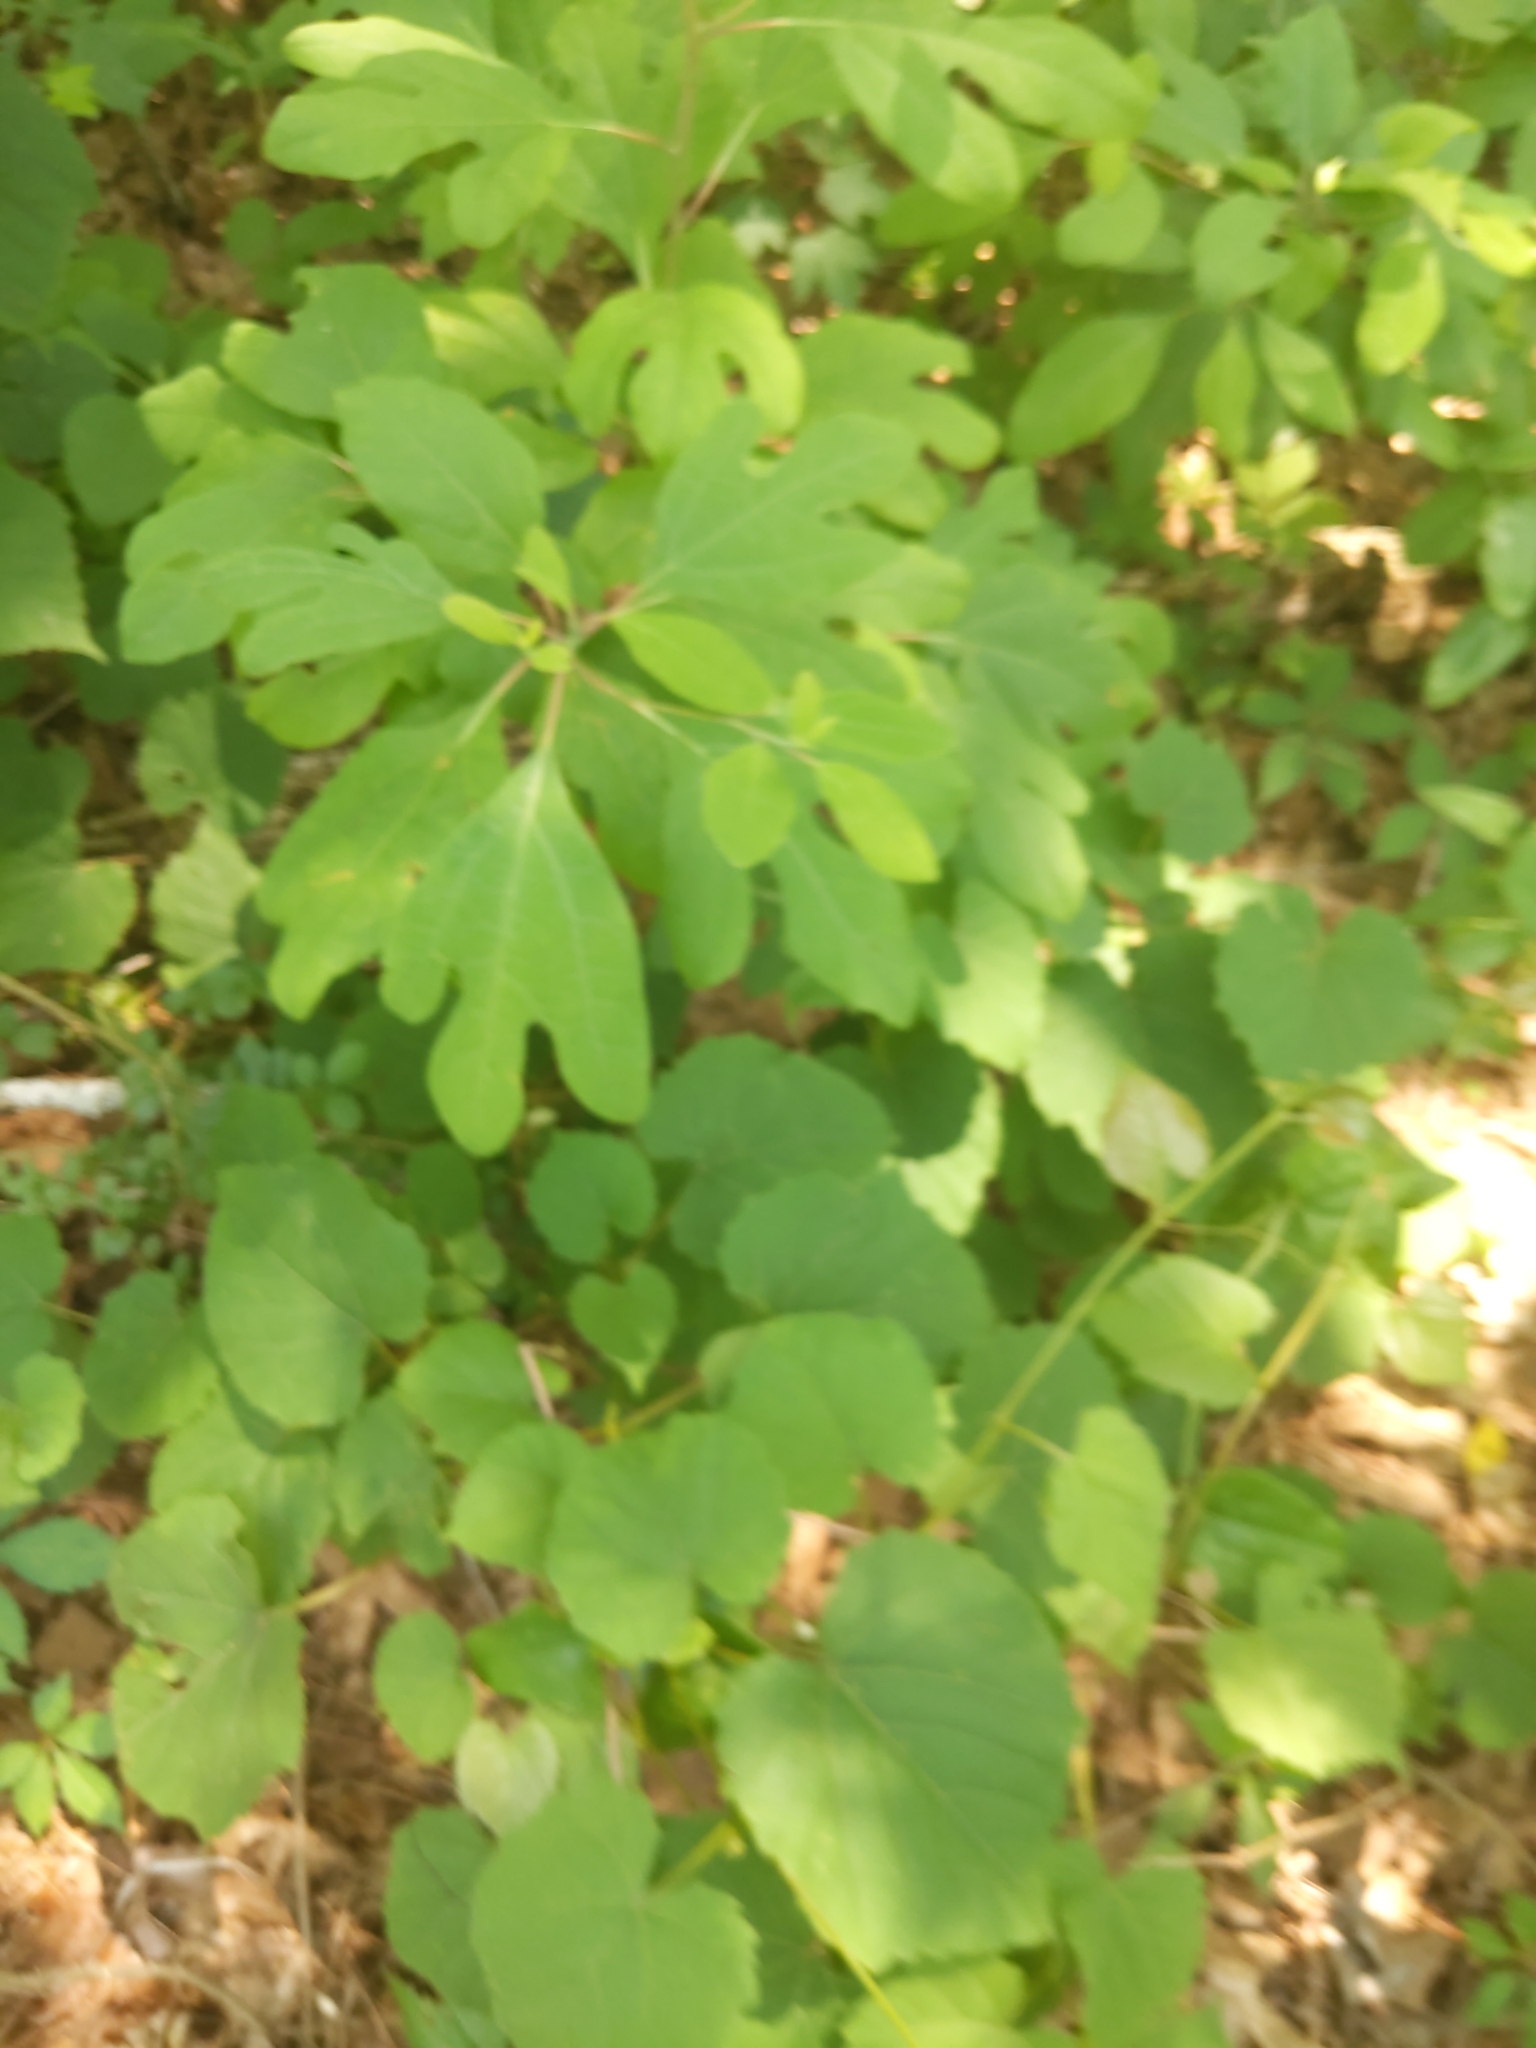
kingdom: Plantae
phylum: Tracheophyta
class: Magnoliopsida
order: Laurales
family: Lauraceae
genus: Sassafras
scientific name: Sassafras albidum
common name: Sassafras
